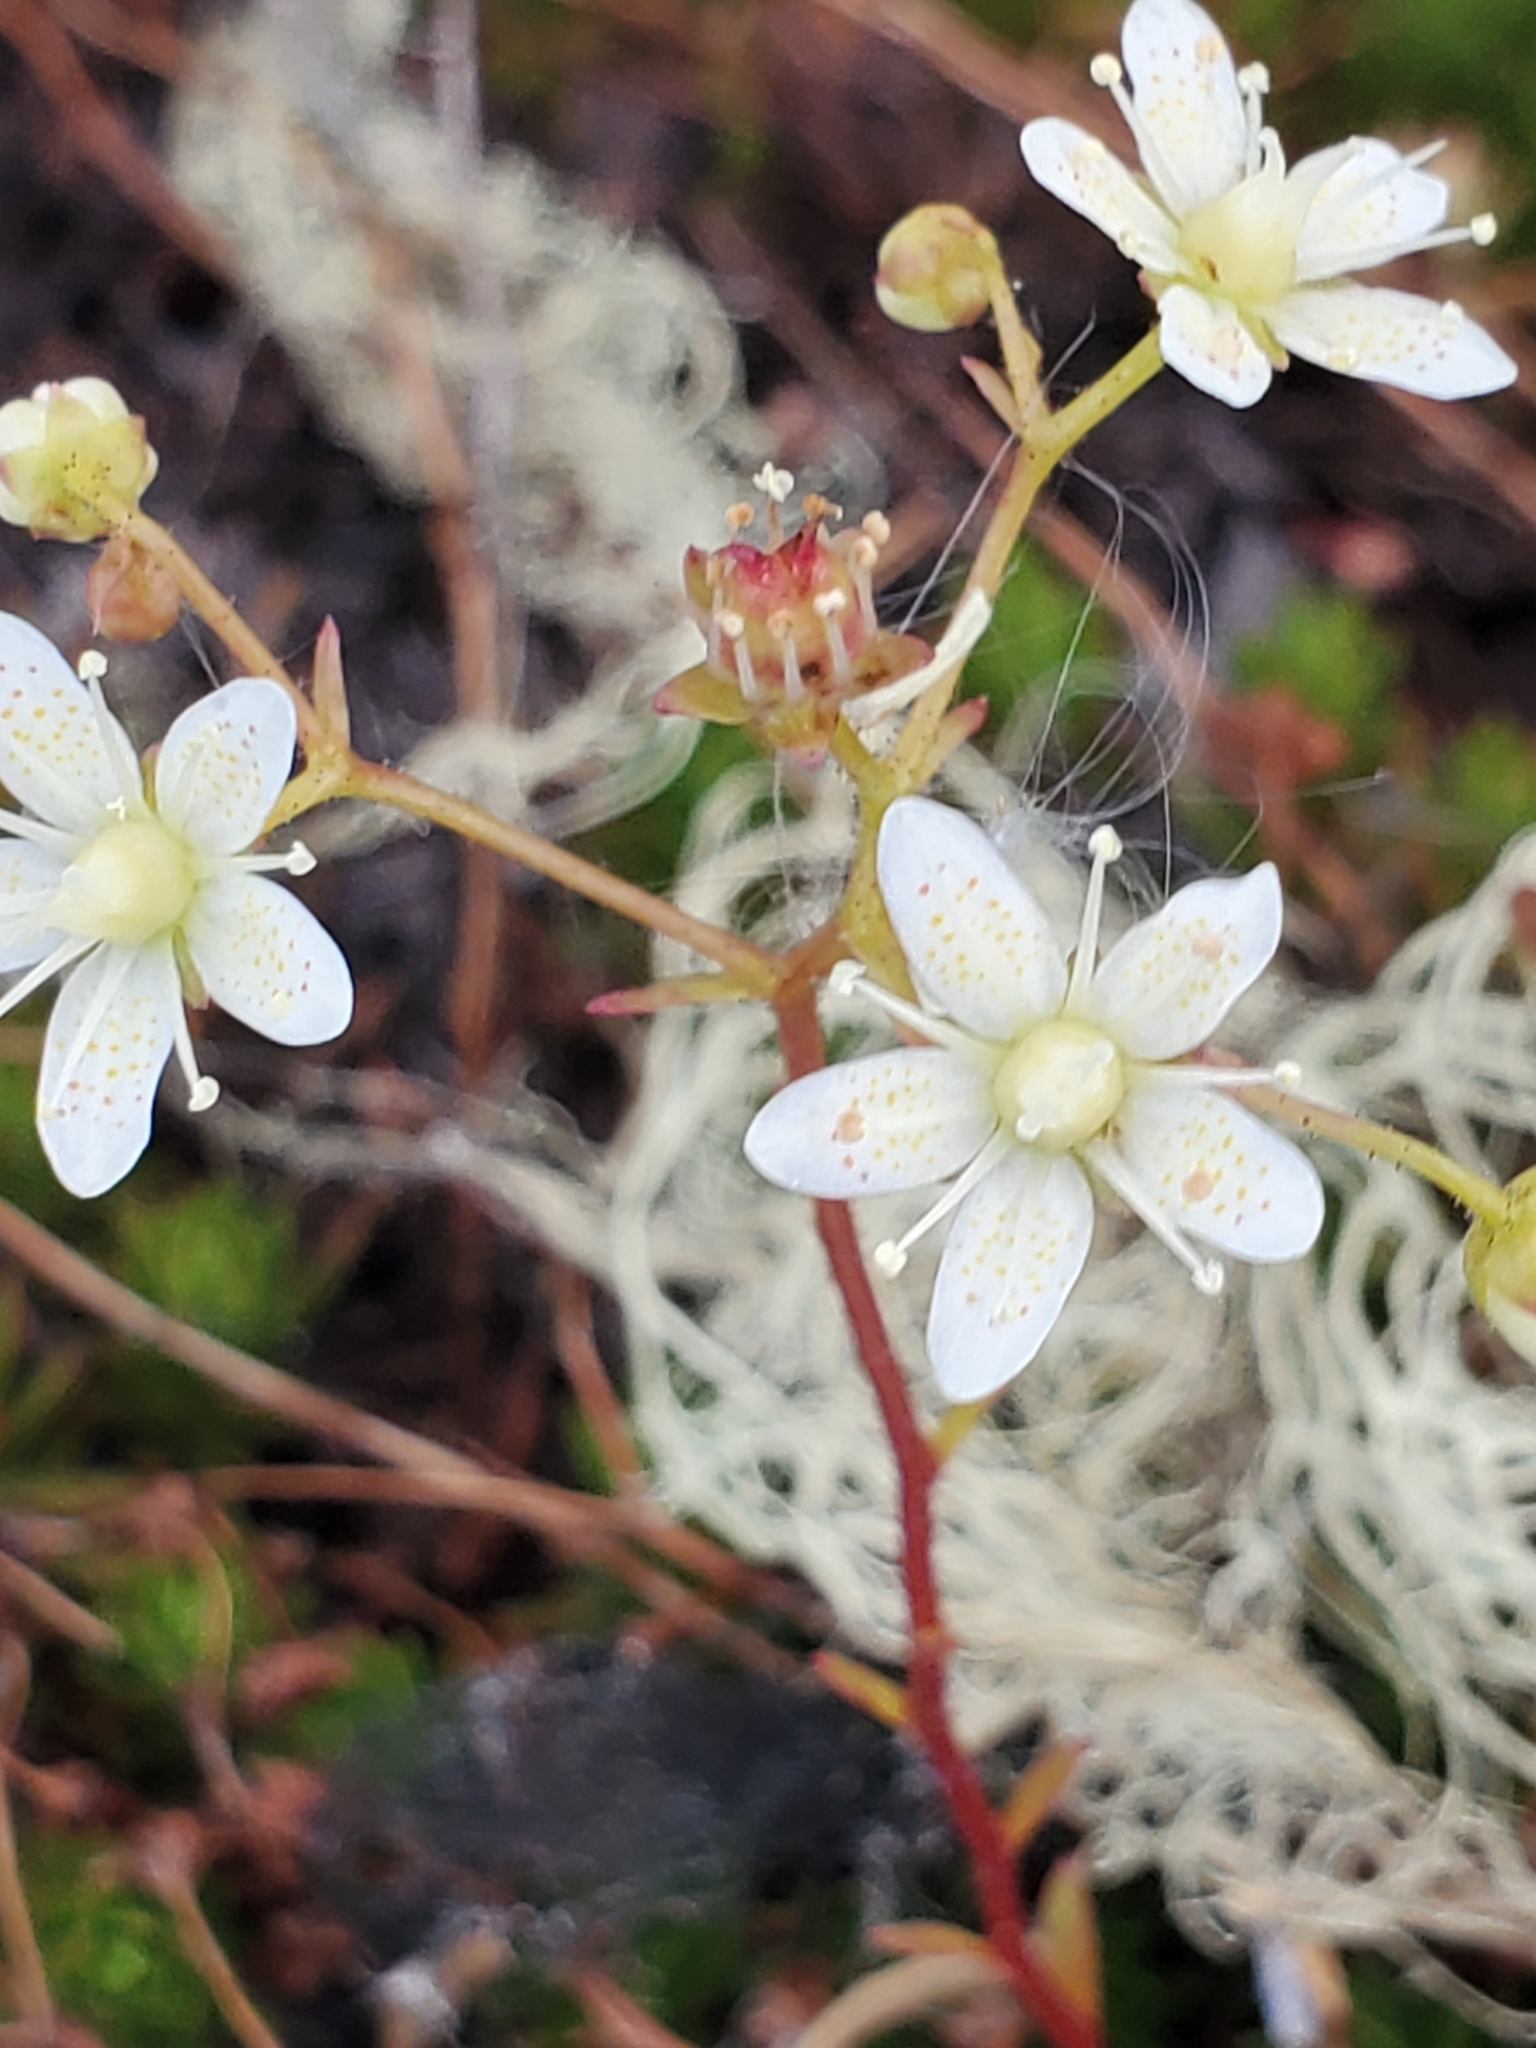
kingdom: Plantae
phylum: Tracheophyta
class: Magnoliopsida
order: Saxifragales
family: Saxifragaceae
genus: Saxifraga
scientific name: Saxifraga bronchialis
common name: Matted saxifrage
